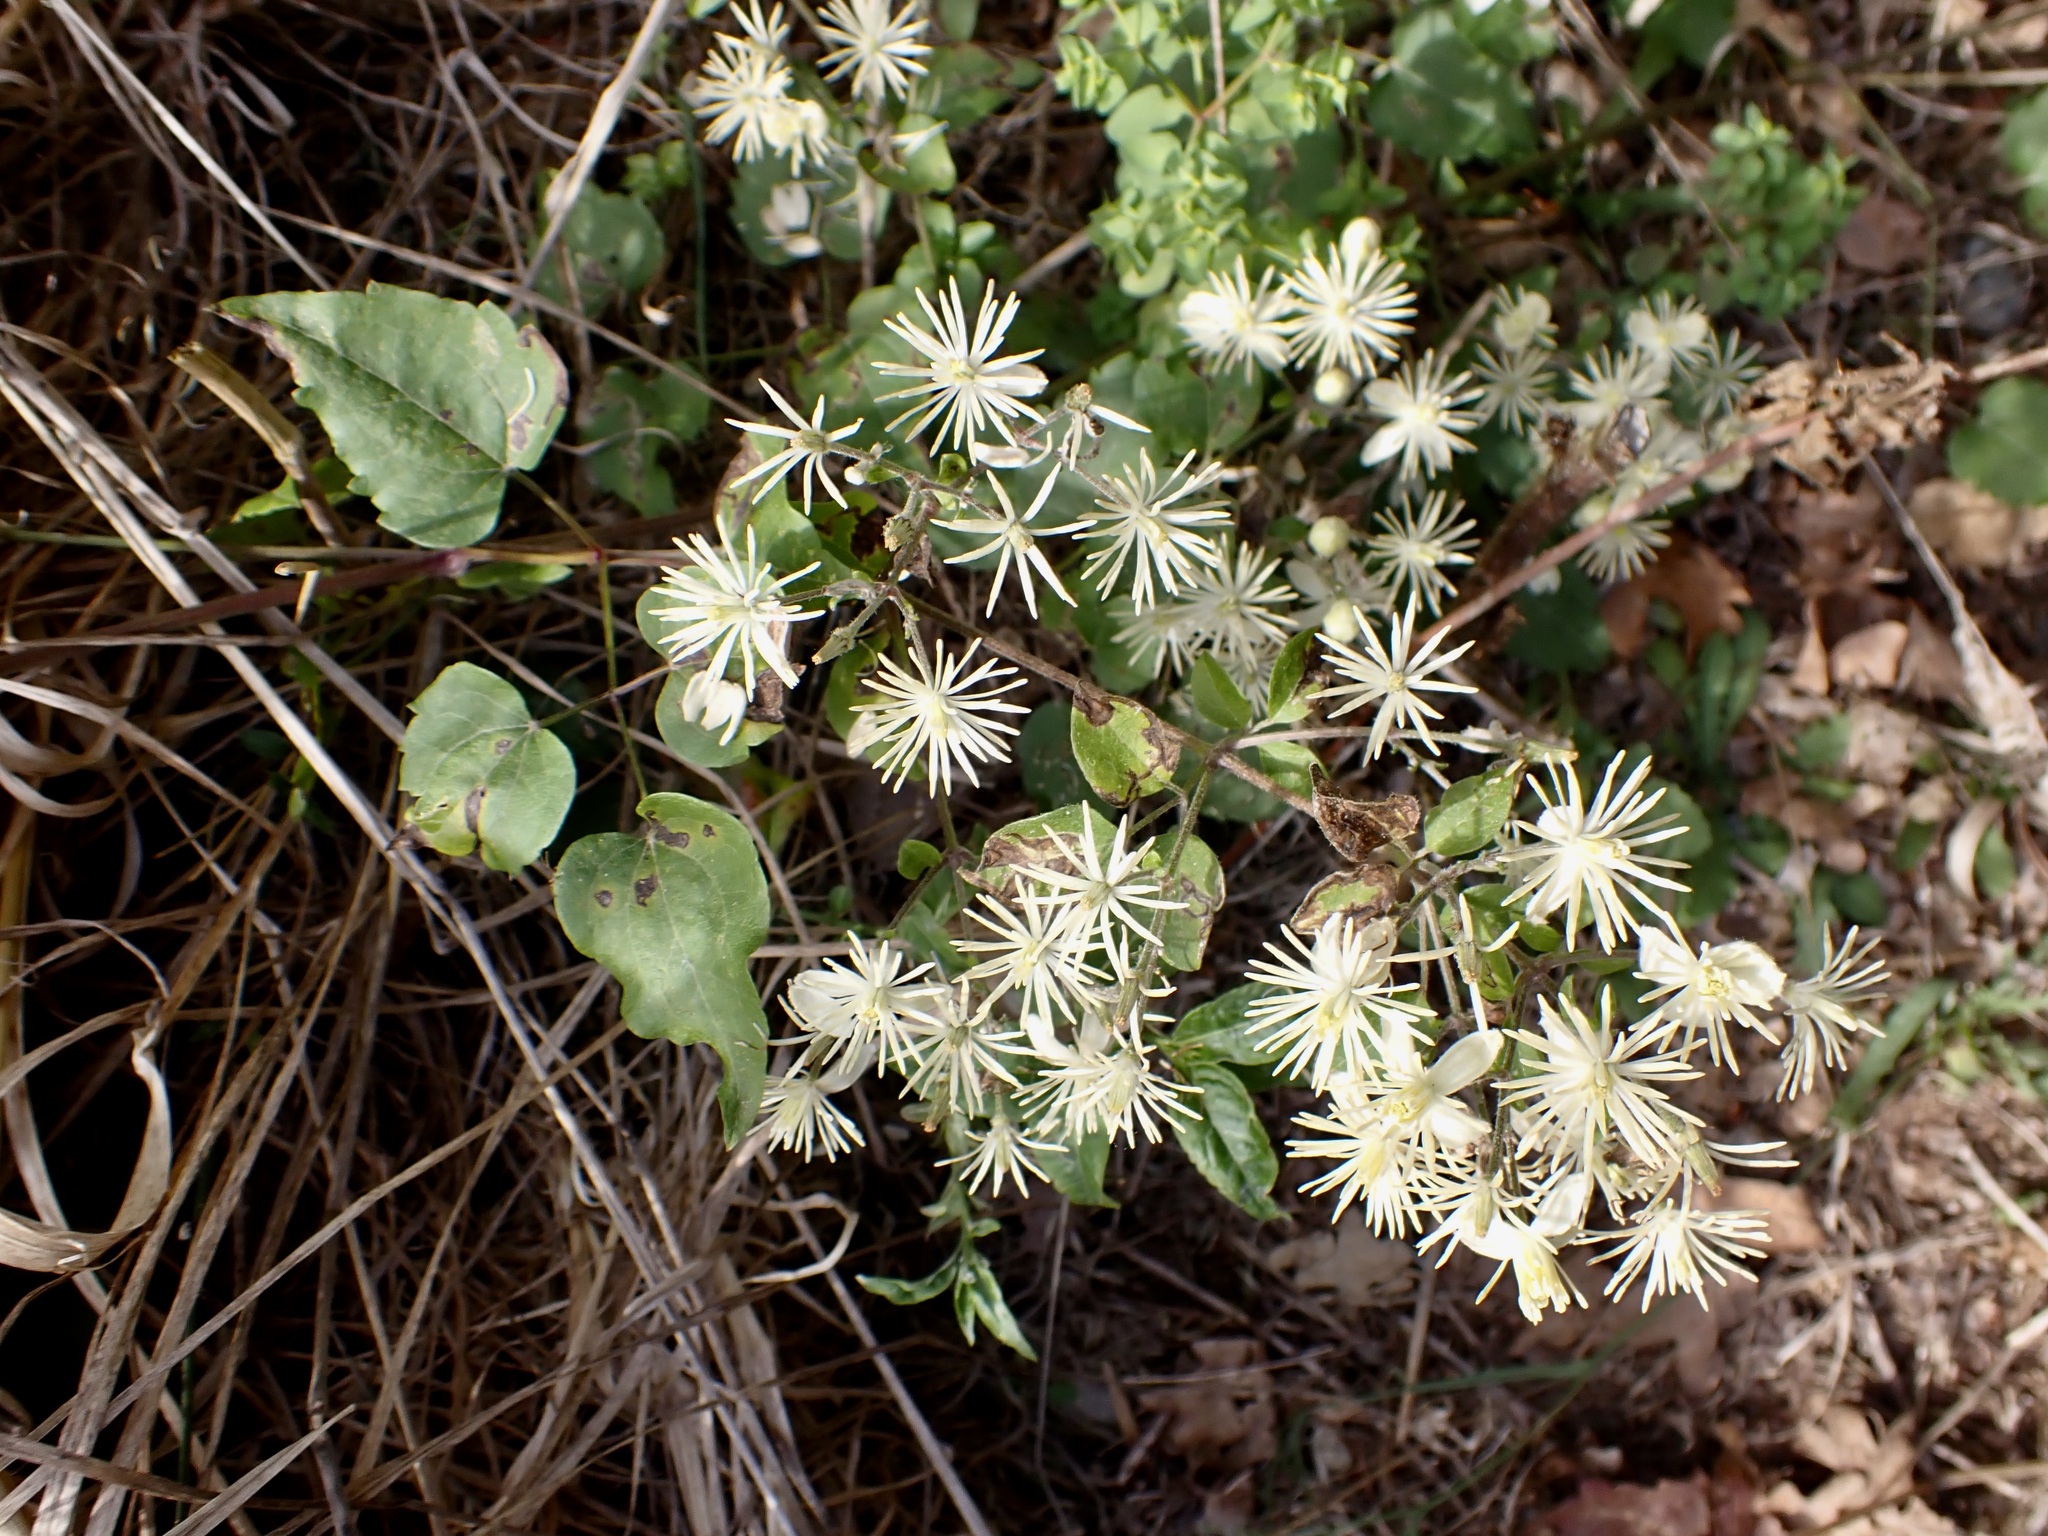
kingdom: Plantae
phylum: Tracheophyta
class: Magnoliopsida
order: Ranunculales
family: Ranunculaceae
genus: Clematis
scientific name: Clematis vitalba
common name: Evergreen clematis
